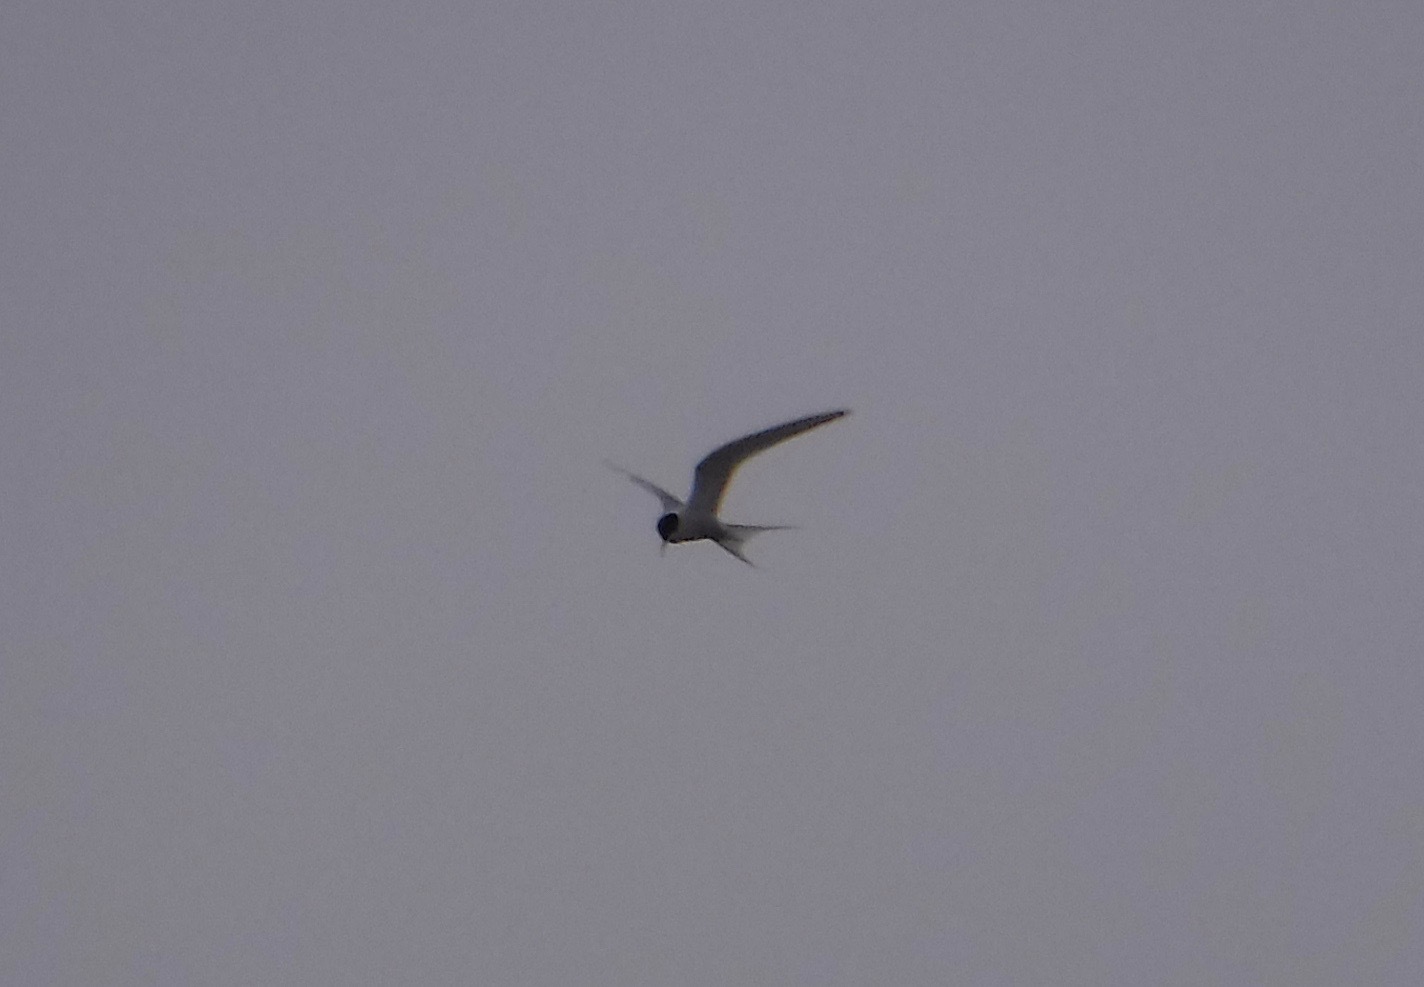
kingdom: Animalia
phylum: Chordata
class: Aves
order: Charadriiformes
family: Laridae
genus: Sterna
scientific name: Sterna paradisaea
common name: Arctic tern
